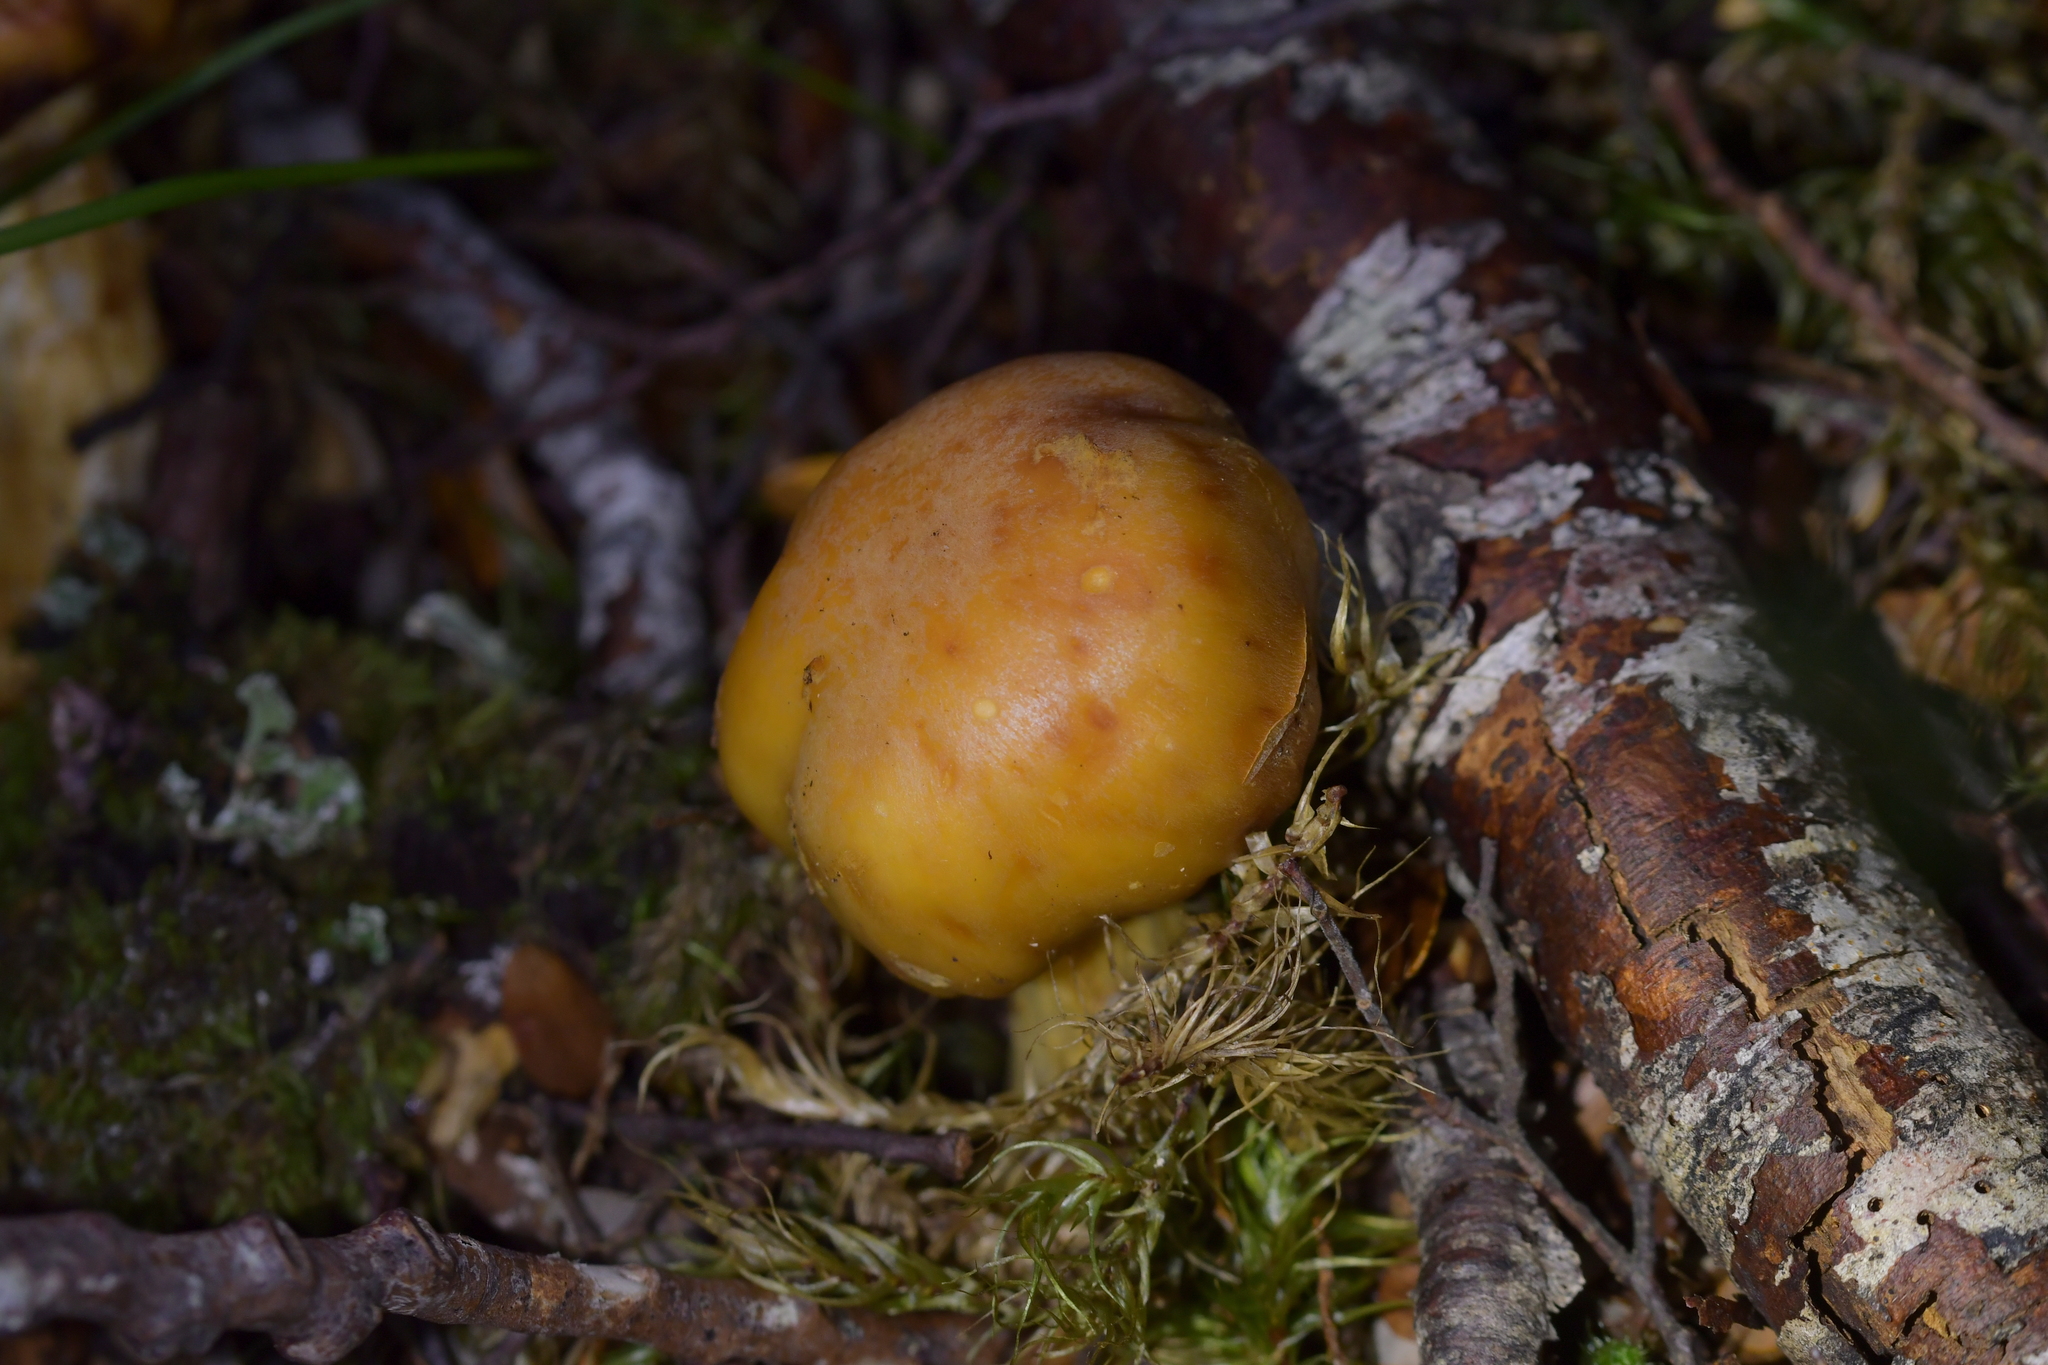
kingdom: Fungi
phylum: Basidiomycota
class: Agaricomycetes
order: Agaricales
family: Cortinariaceae
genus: Cortinarius
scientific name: Cortinarius epiphaeus
